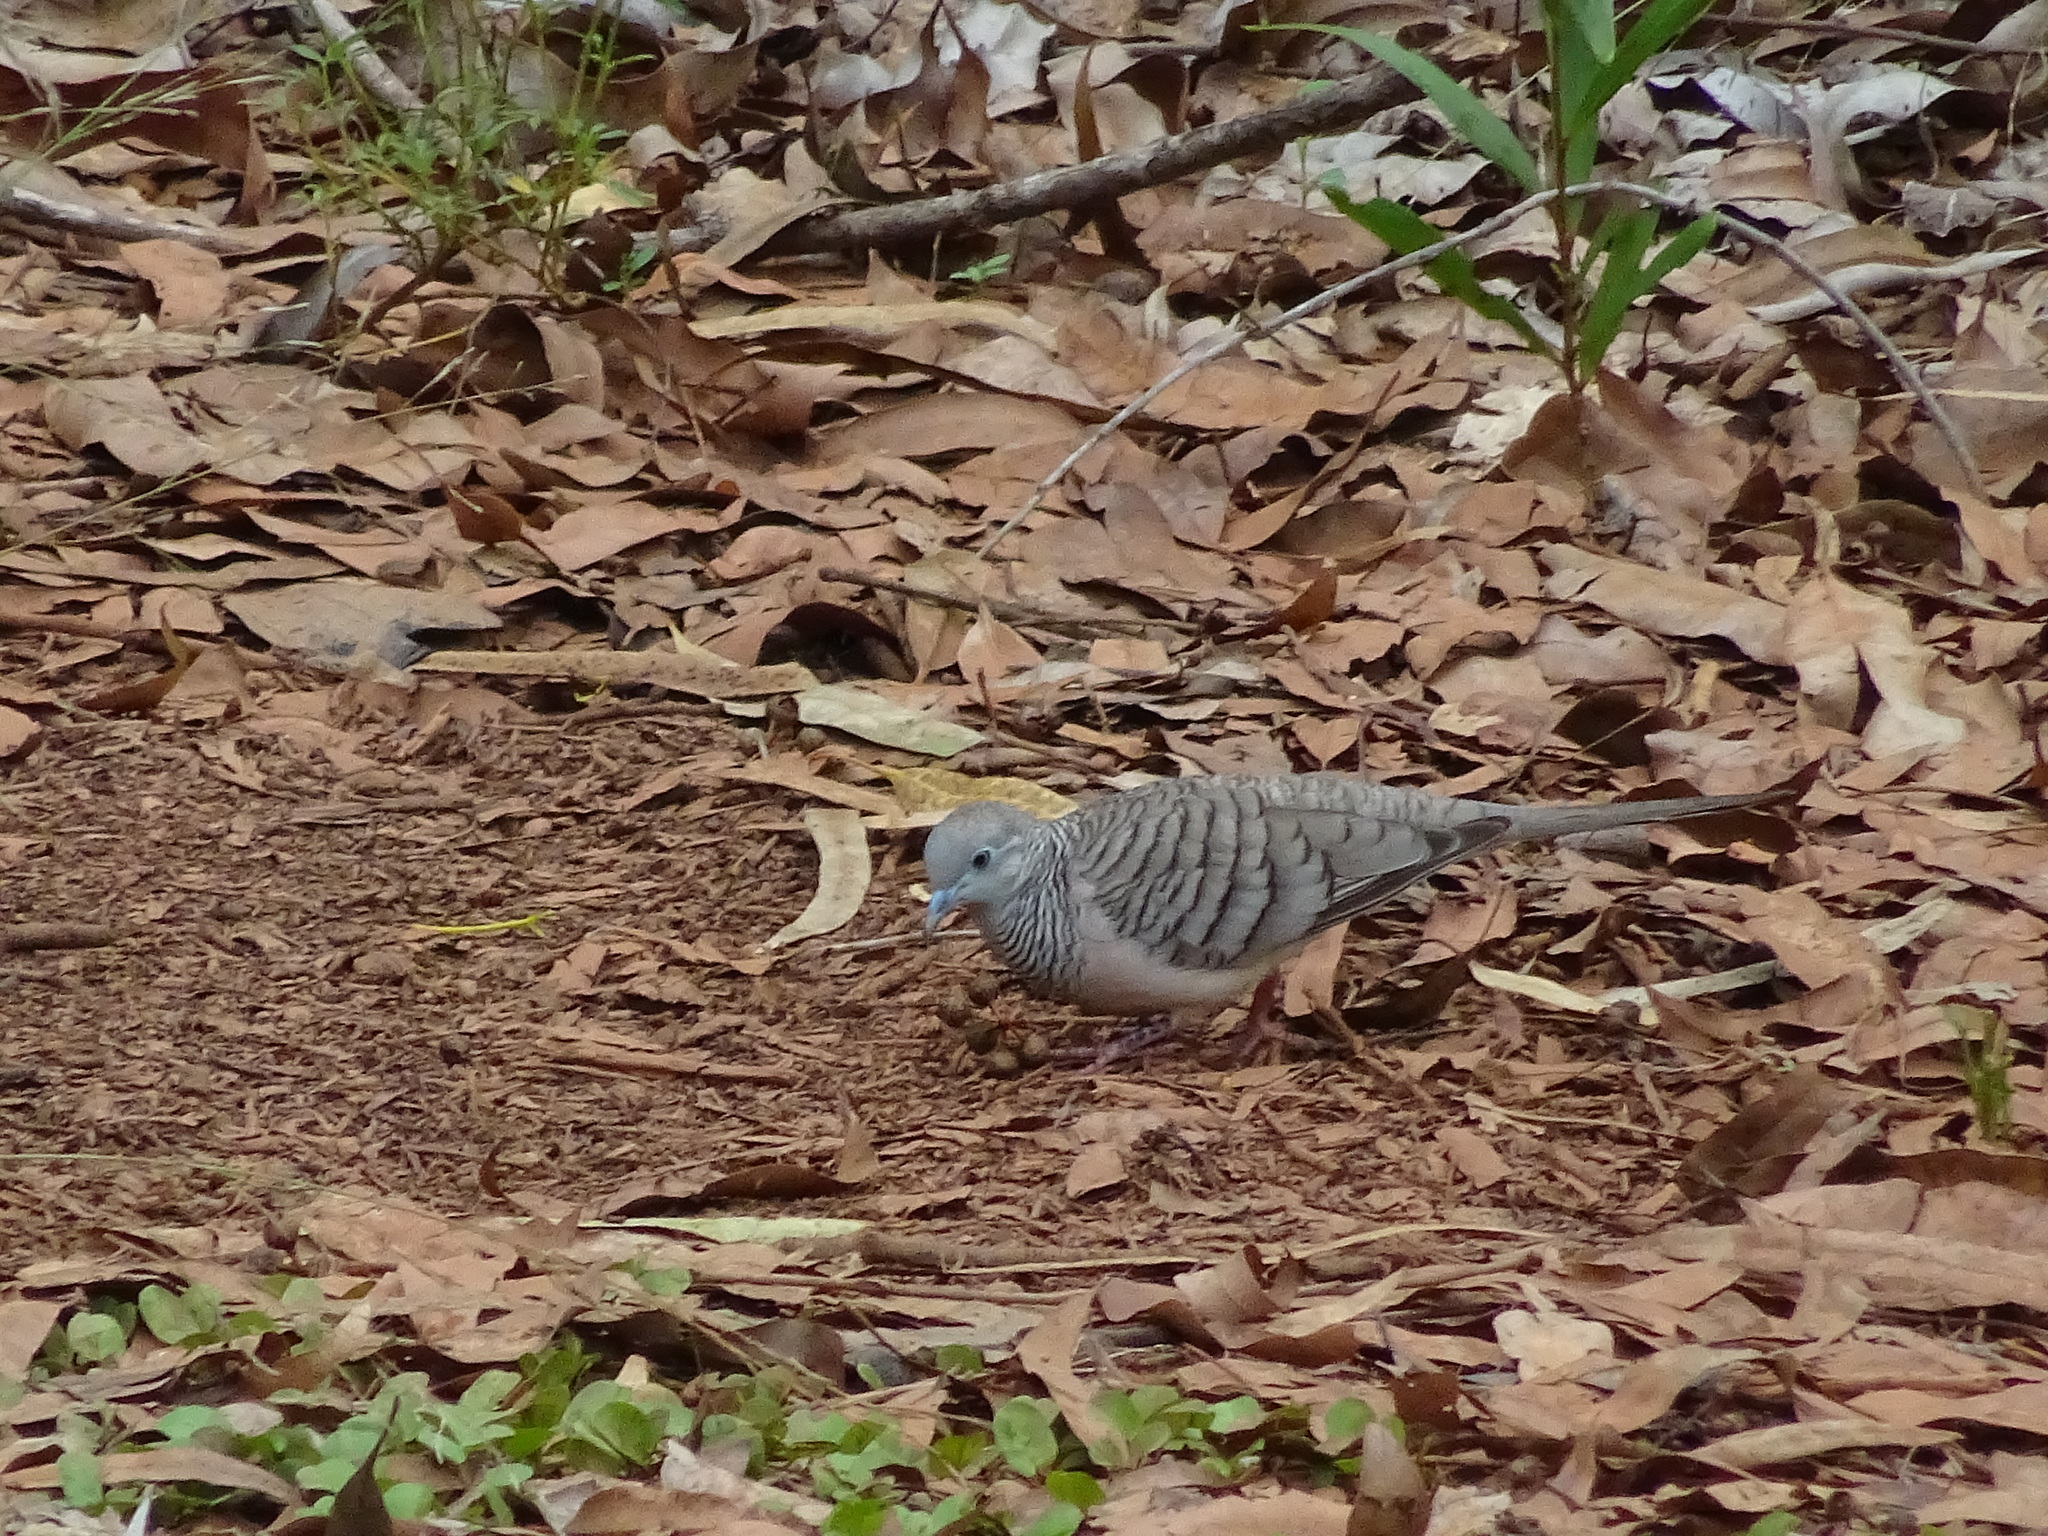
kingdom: Animalia
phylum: Chordata
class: Aves
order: Columbiformes
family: Columbidae
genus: Geopelia
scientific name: Geopelia placida
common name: Peaceful dove
